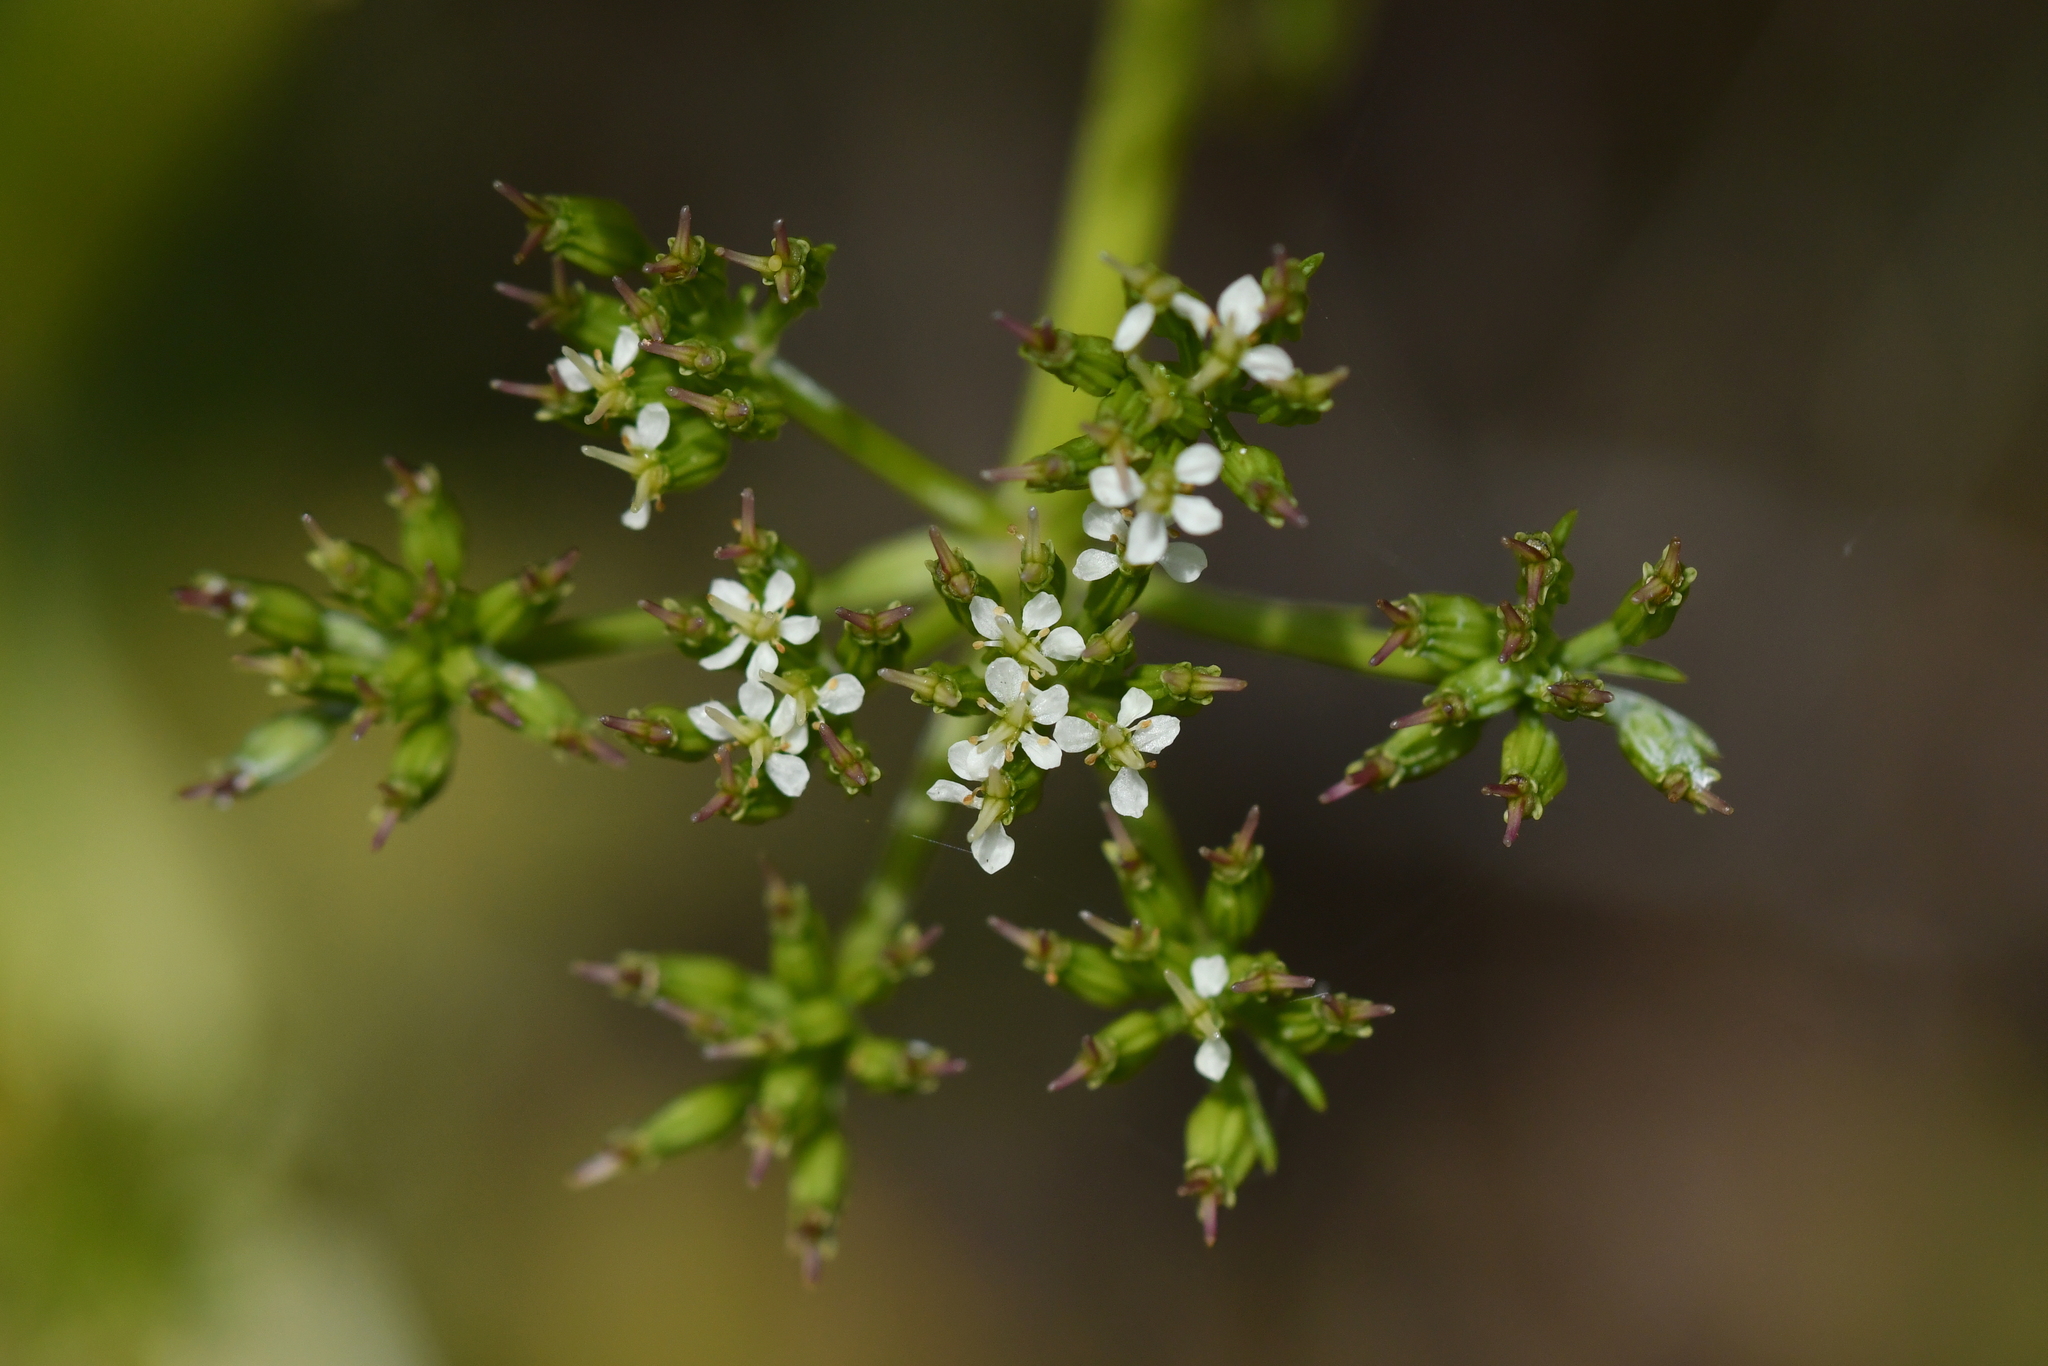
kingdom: Plantae
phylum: Tracheophyta
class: Magnoliopsida
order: Apiales
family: Apiaceae
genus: Anisotome
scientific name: Anisotome haastii
